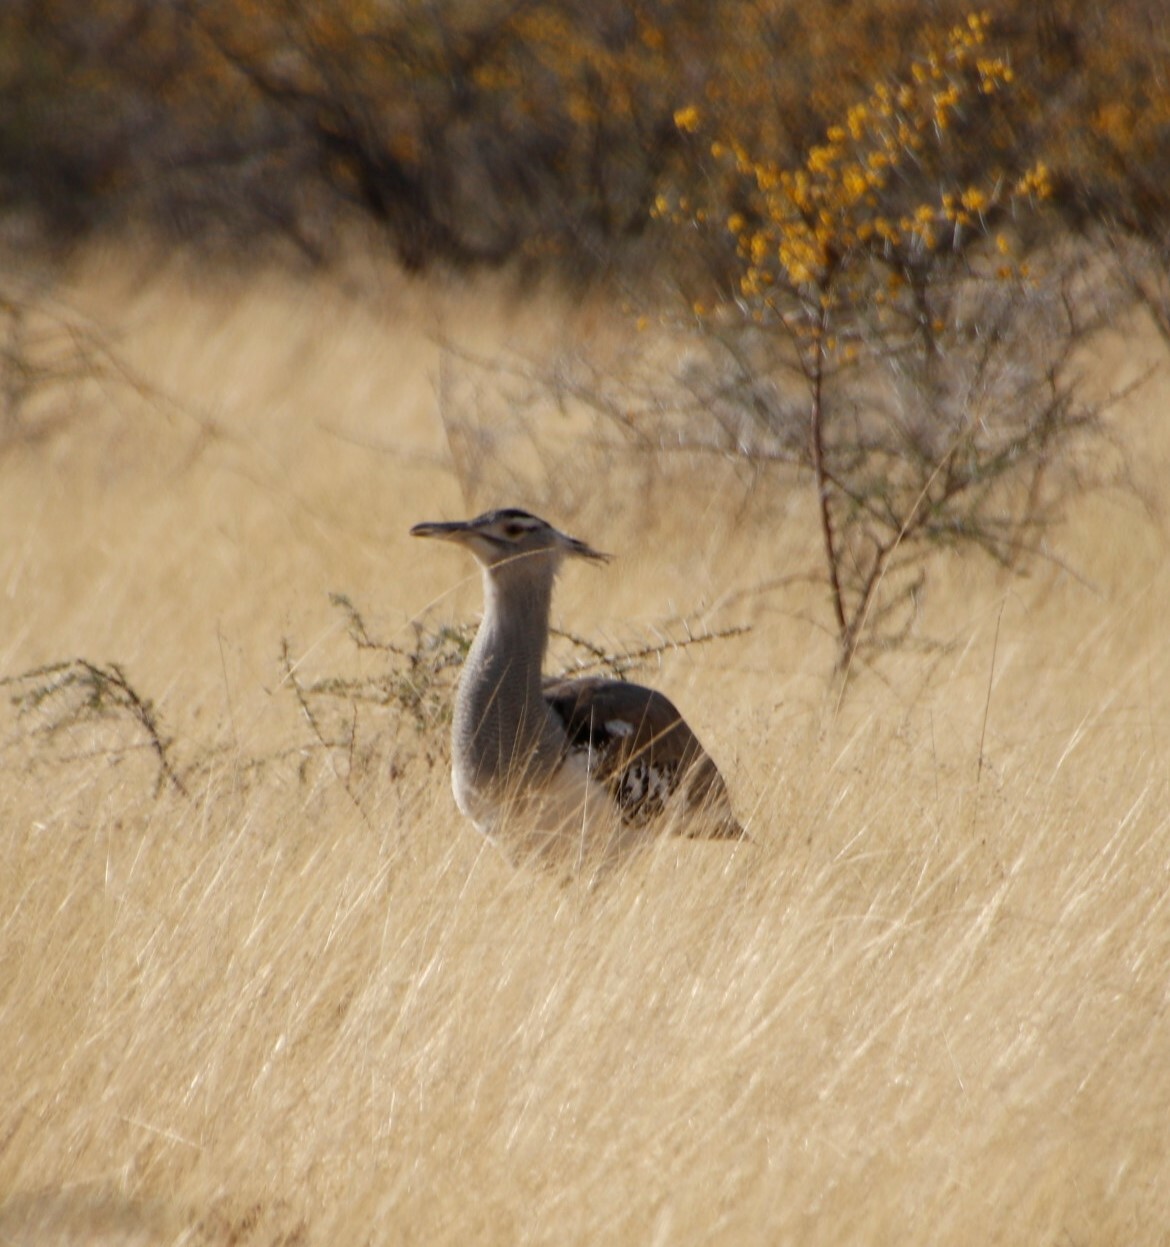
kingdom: Animalia
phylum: Chordata
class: Aves
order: Otidiformes
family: Otididae
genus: Ardeotis
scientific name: Ardeotis kori
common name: Kori bustard
